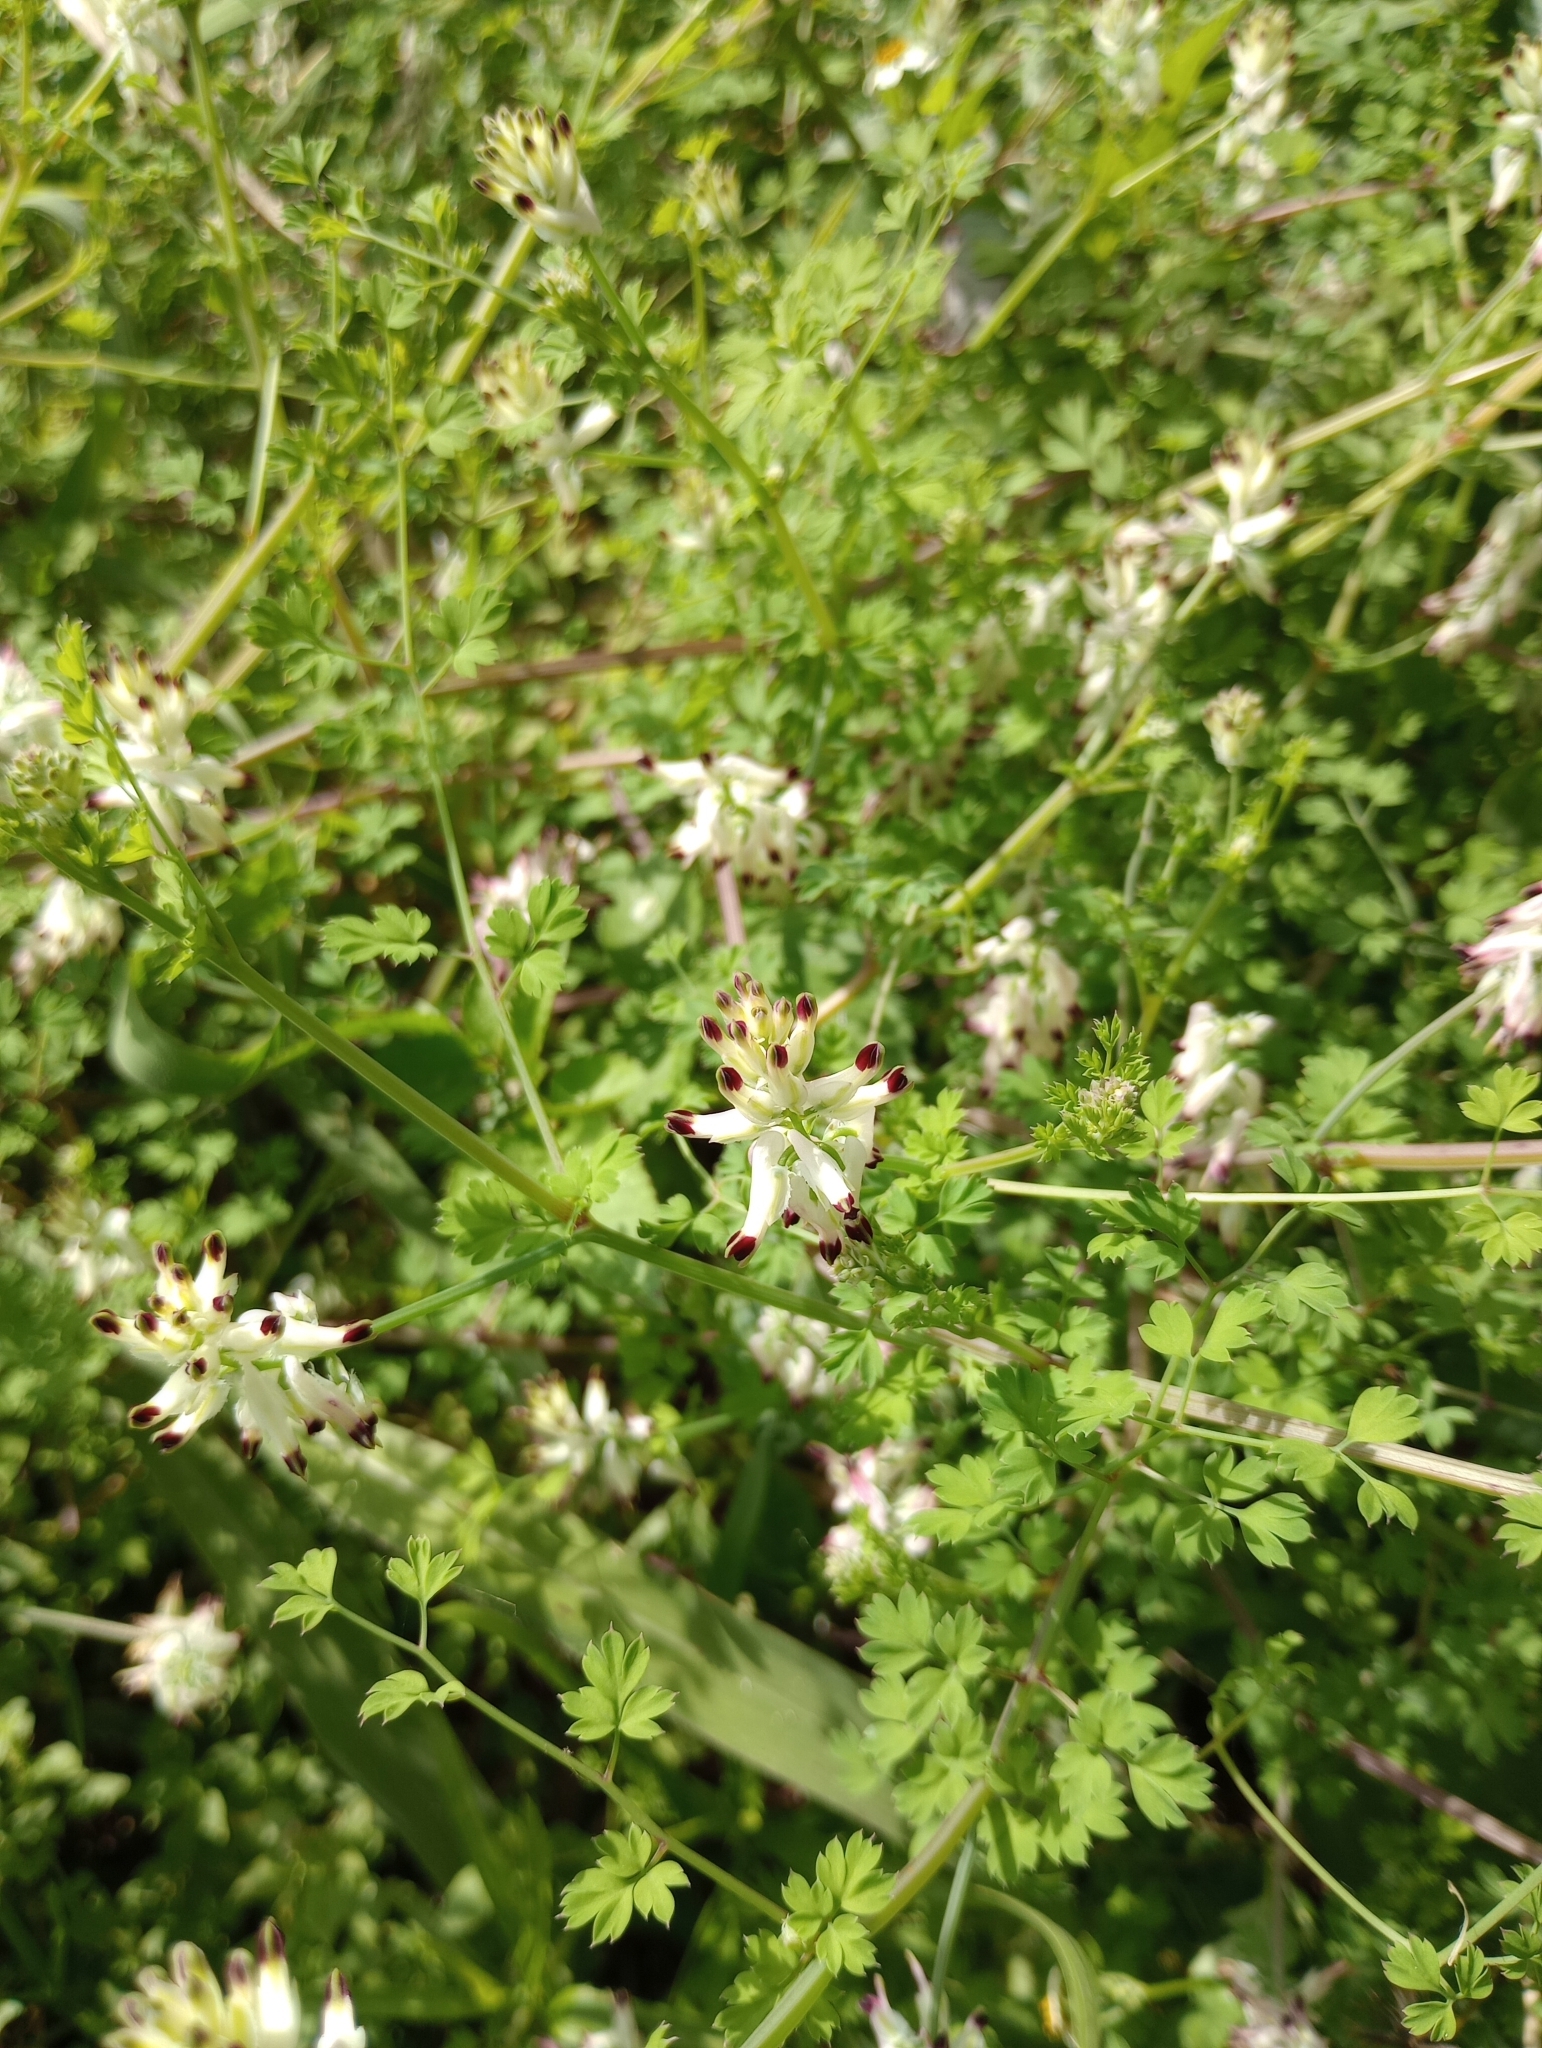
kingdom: Plantae
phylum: Tracheophyta
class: Magnoliopsida
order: Ranunculales
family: Papaveraceae
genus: Fumaria
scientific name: Fumaria capreolata
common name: White ramping-fumitory
